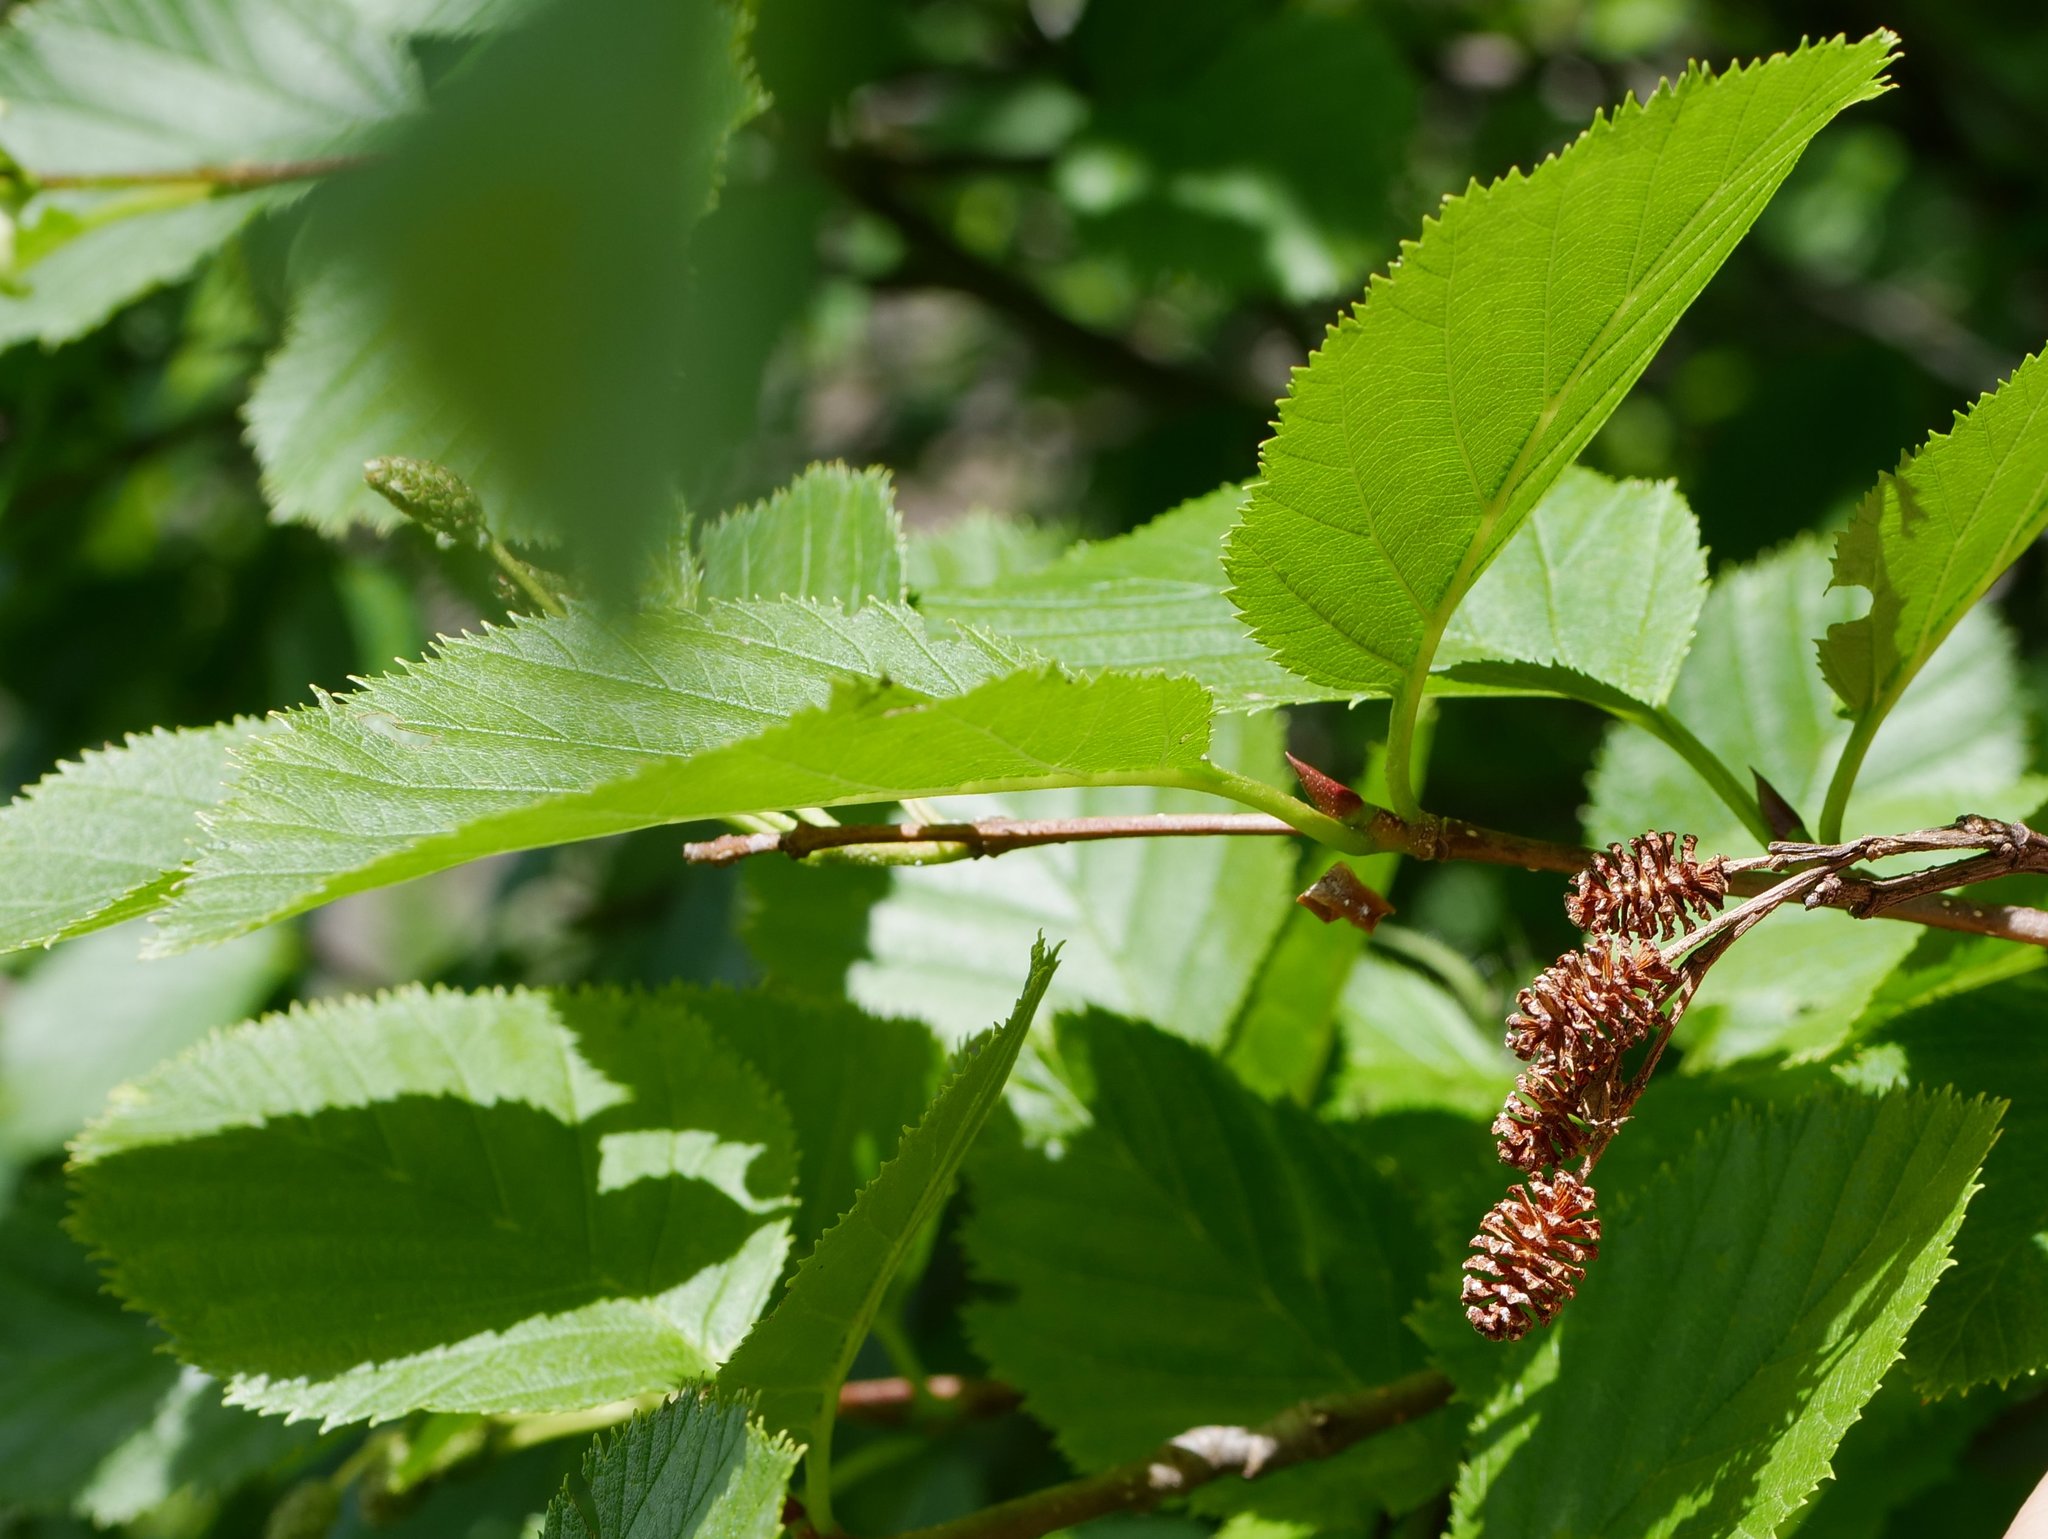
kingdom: Plantae
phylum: Tracheophyta
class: Magnoliopsida
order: Fagales
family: Betulaceae
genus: Alnus
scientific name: Alnus alnobetula
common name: Green alder
